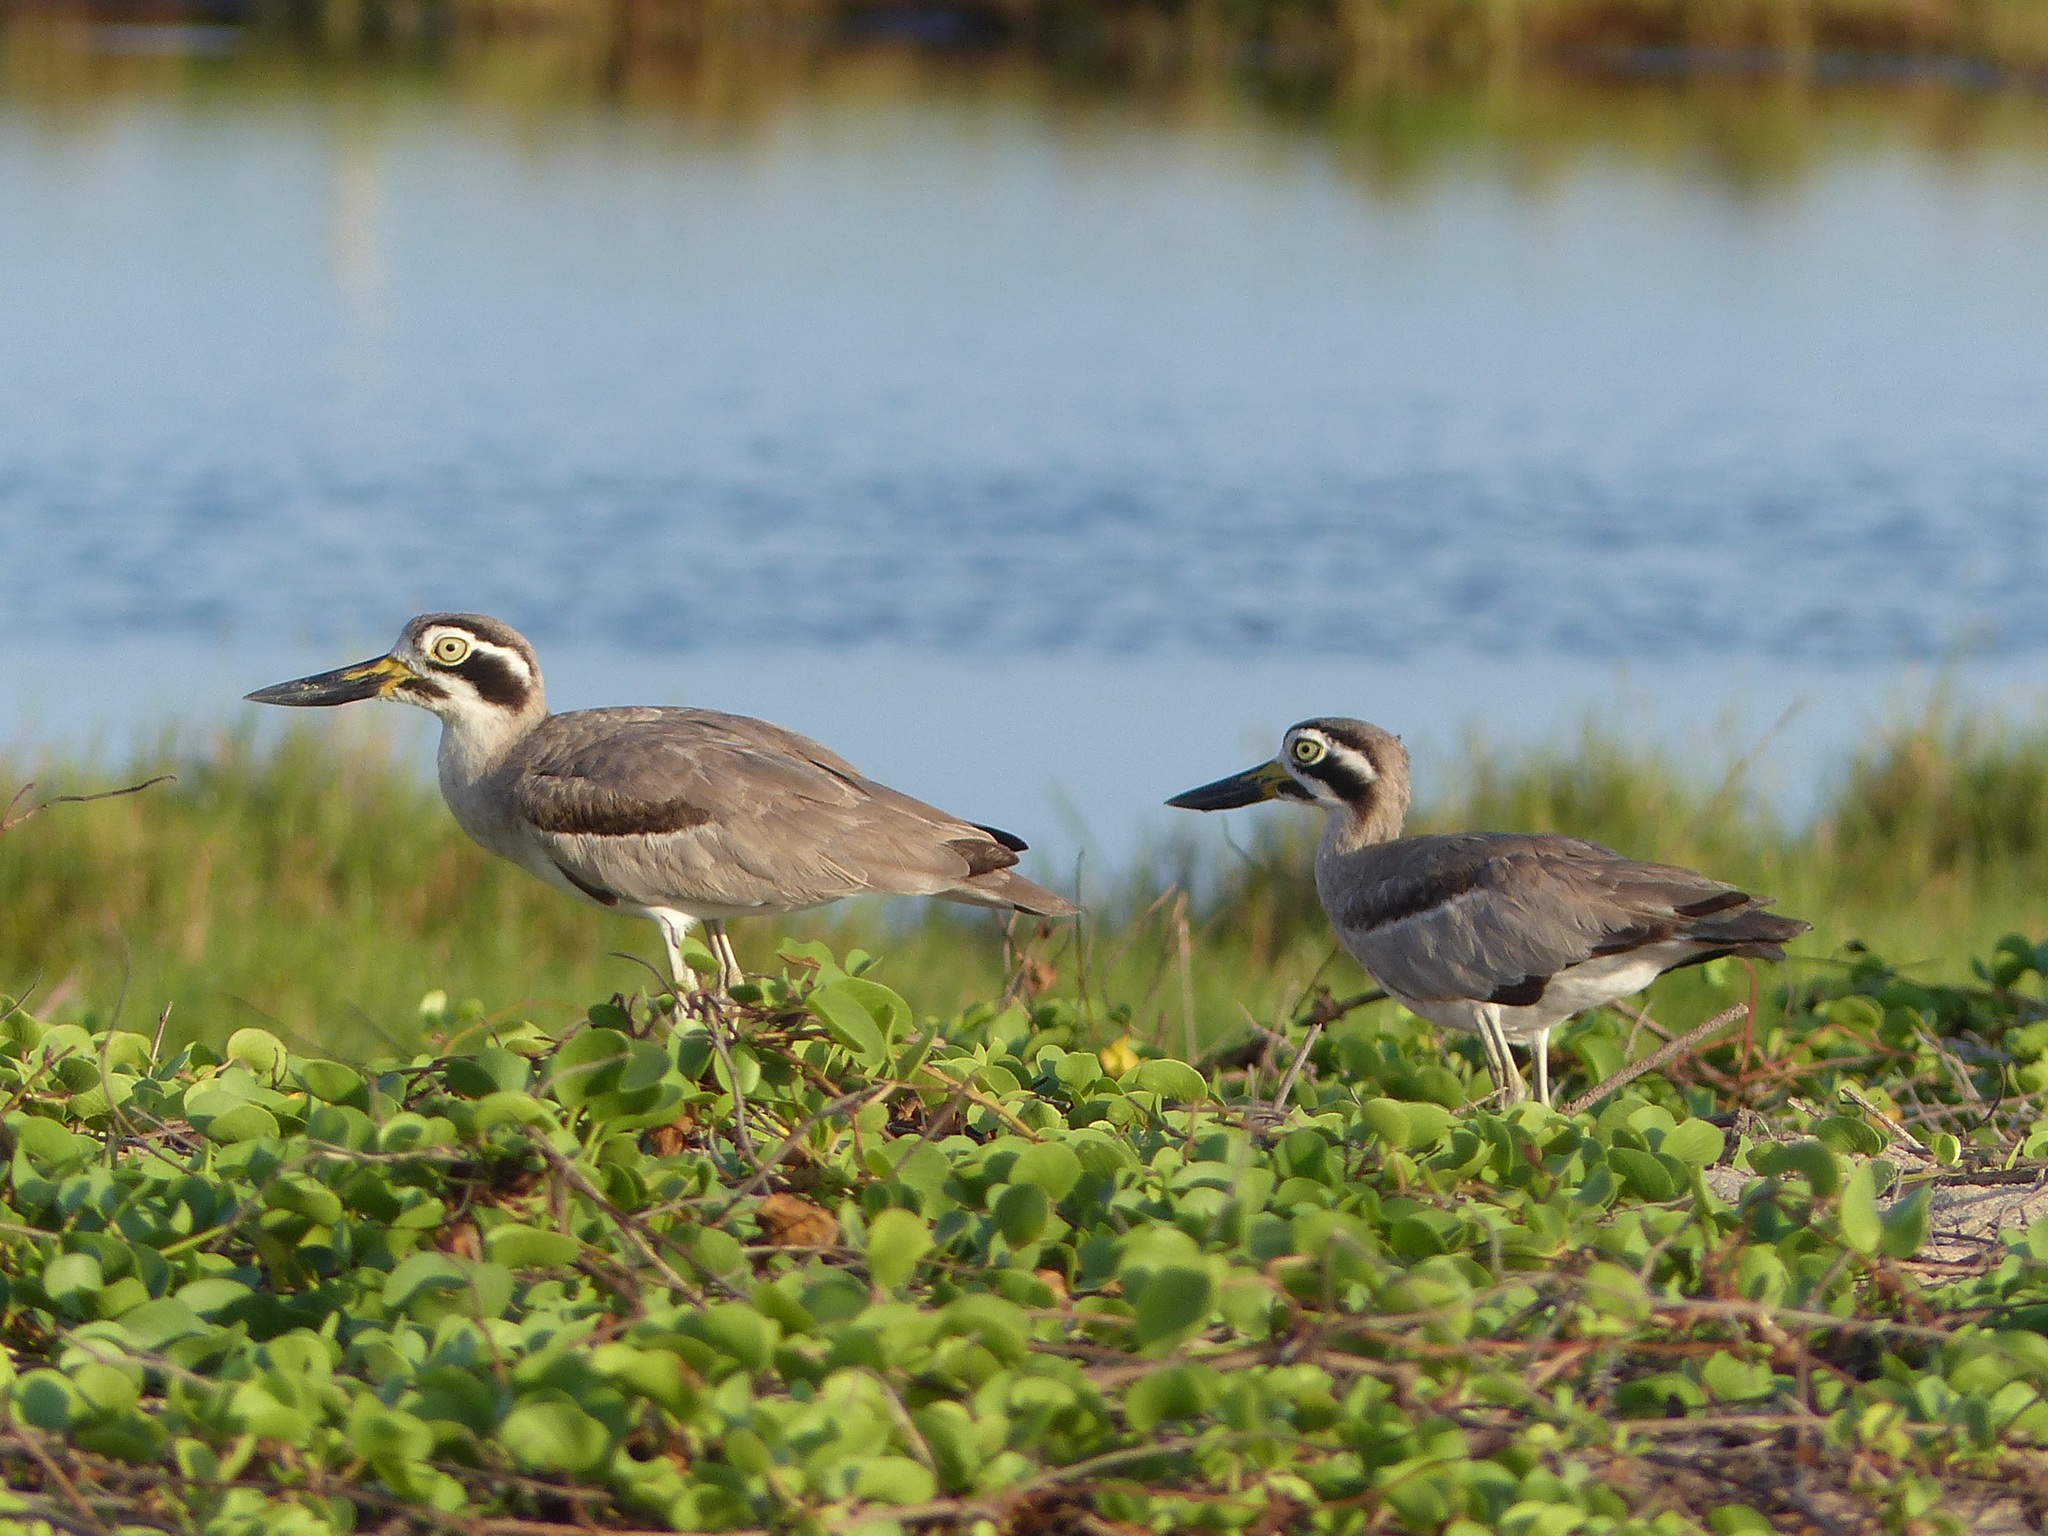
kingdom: Animalia
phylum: Chordata
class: Aves
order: Charadriiformes
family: Burhinidae
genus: Esacus
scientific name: Esacus recurvirostris
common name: Great stone-curlew
